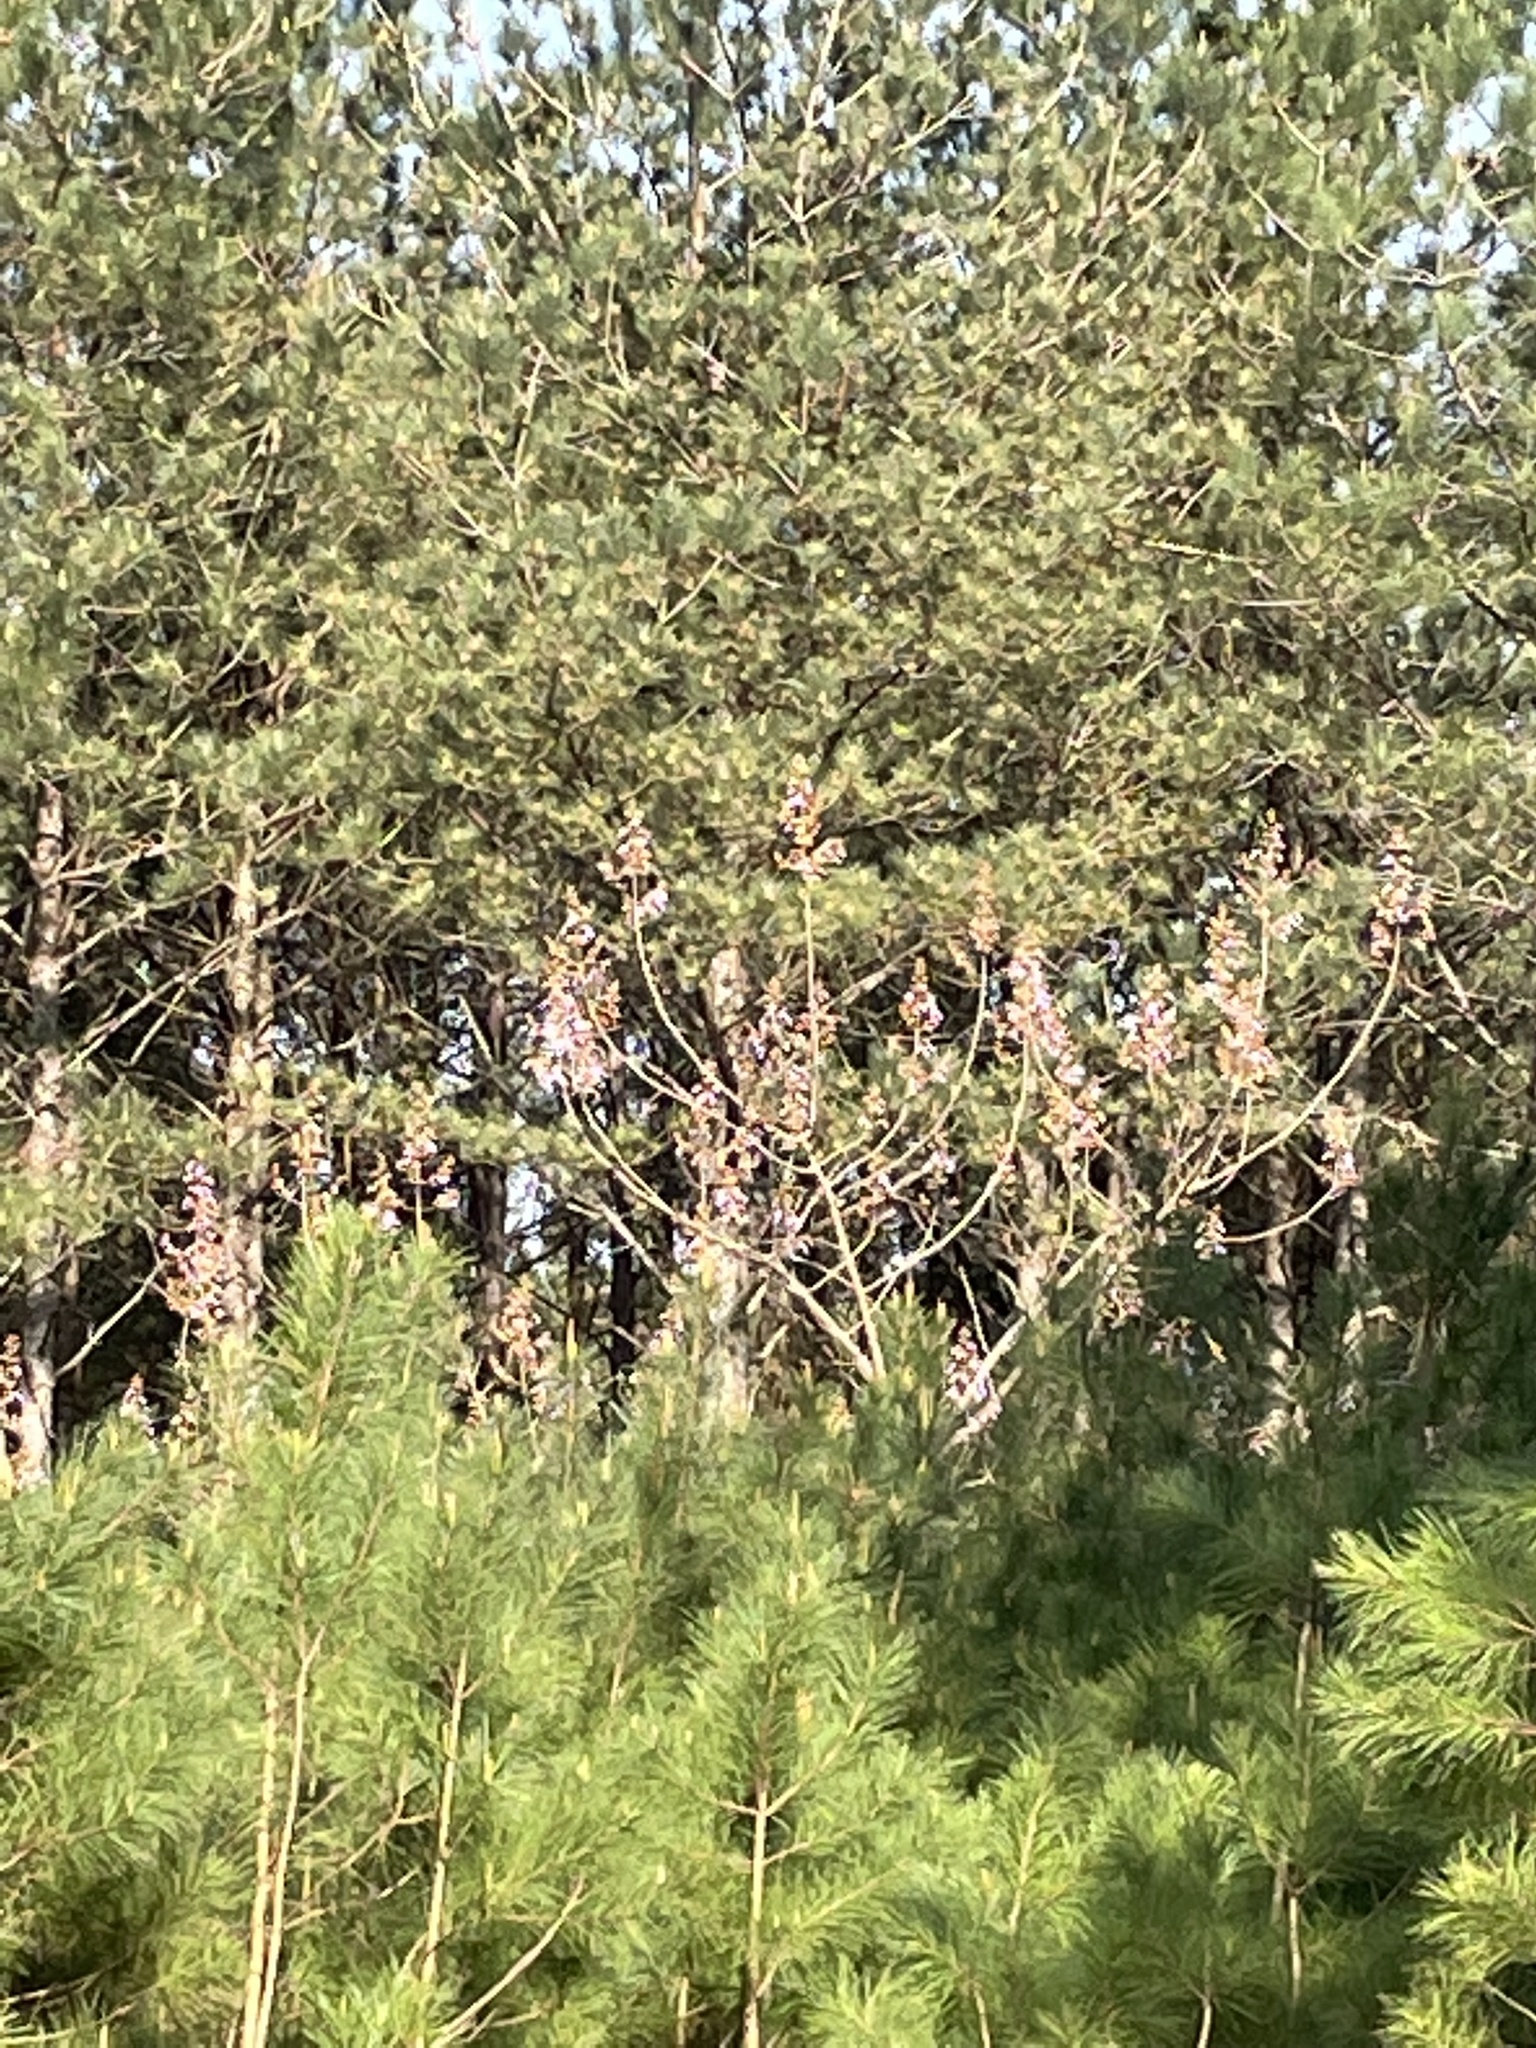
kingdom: Plantae
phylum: Tracheophyta
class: Magnoliopsida
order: Lamiales
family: Paulowniaceae
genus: Paulownia
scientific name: Paulownia tomentosa
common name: Foxglove-tree
